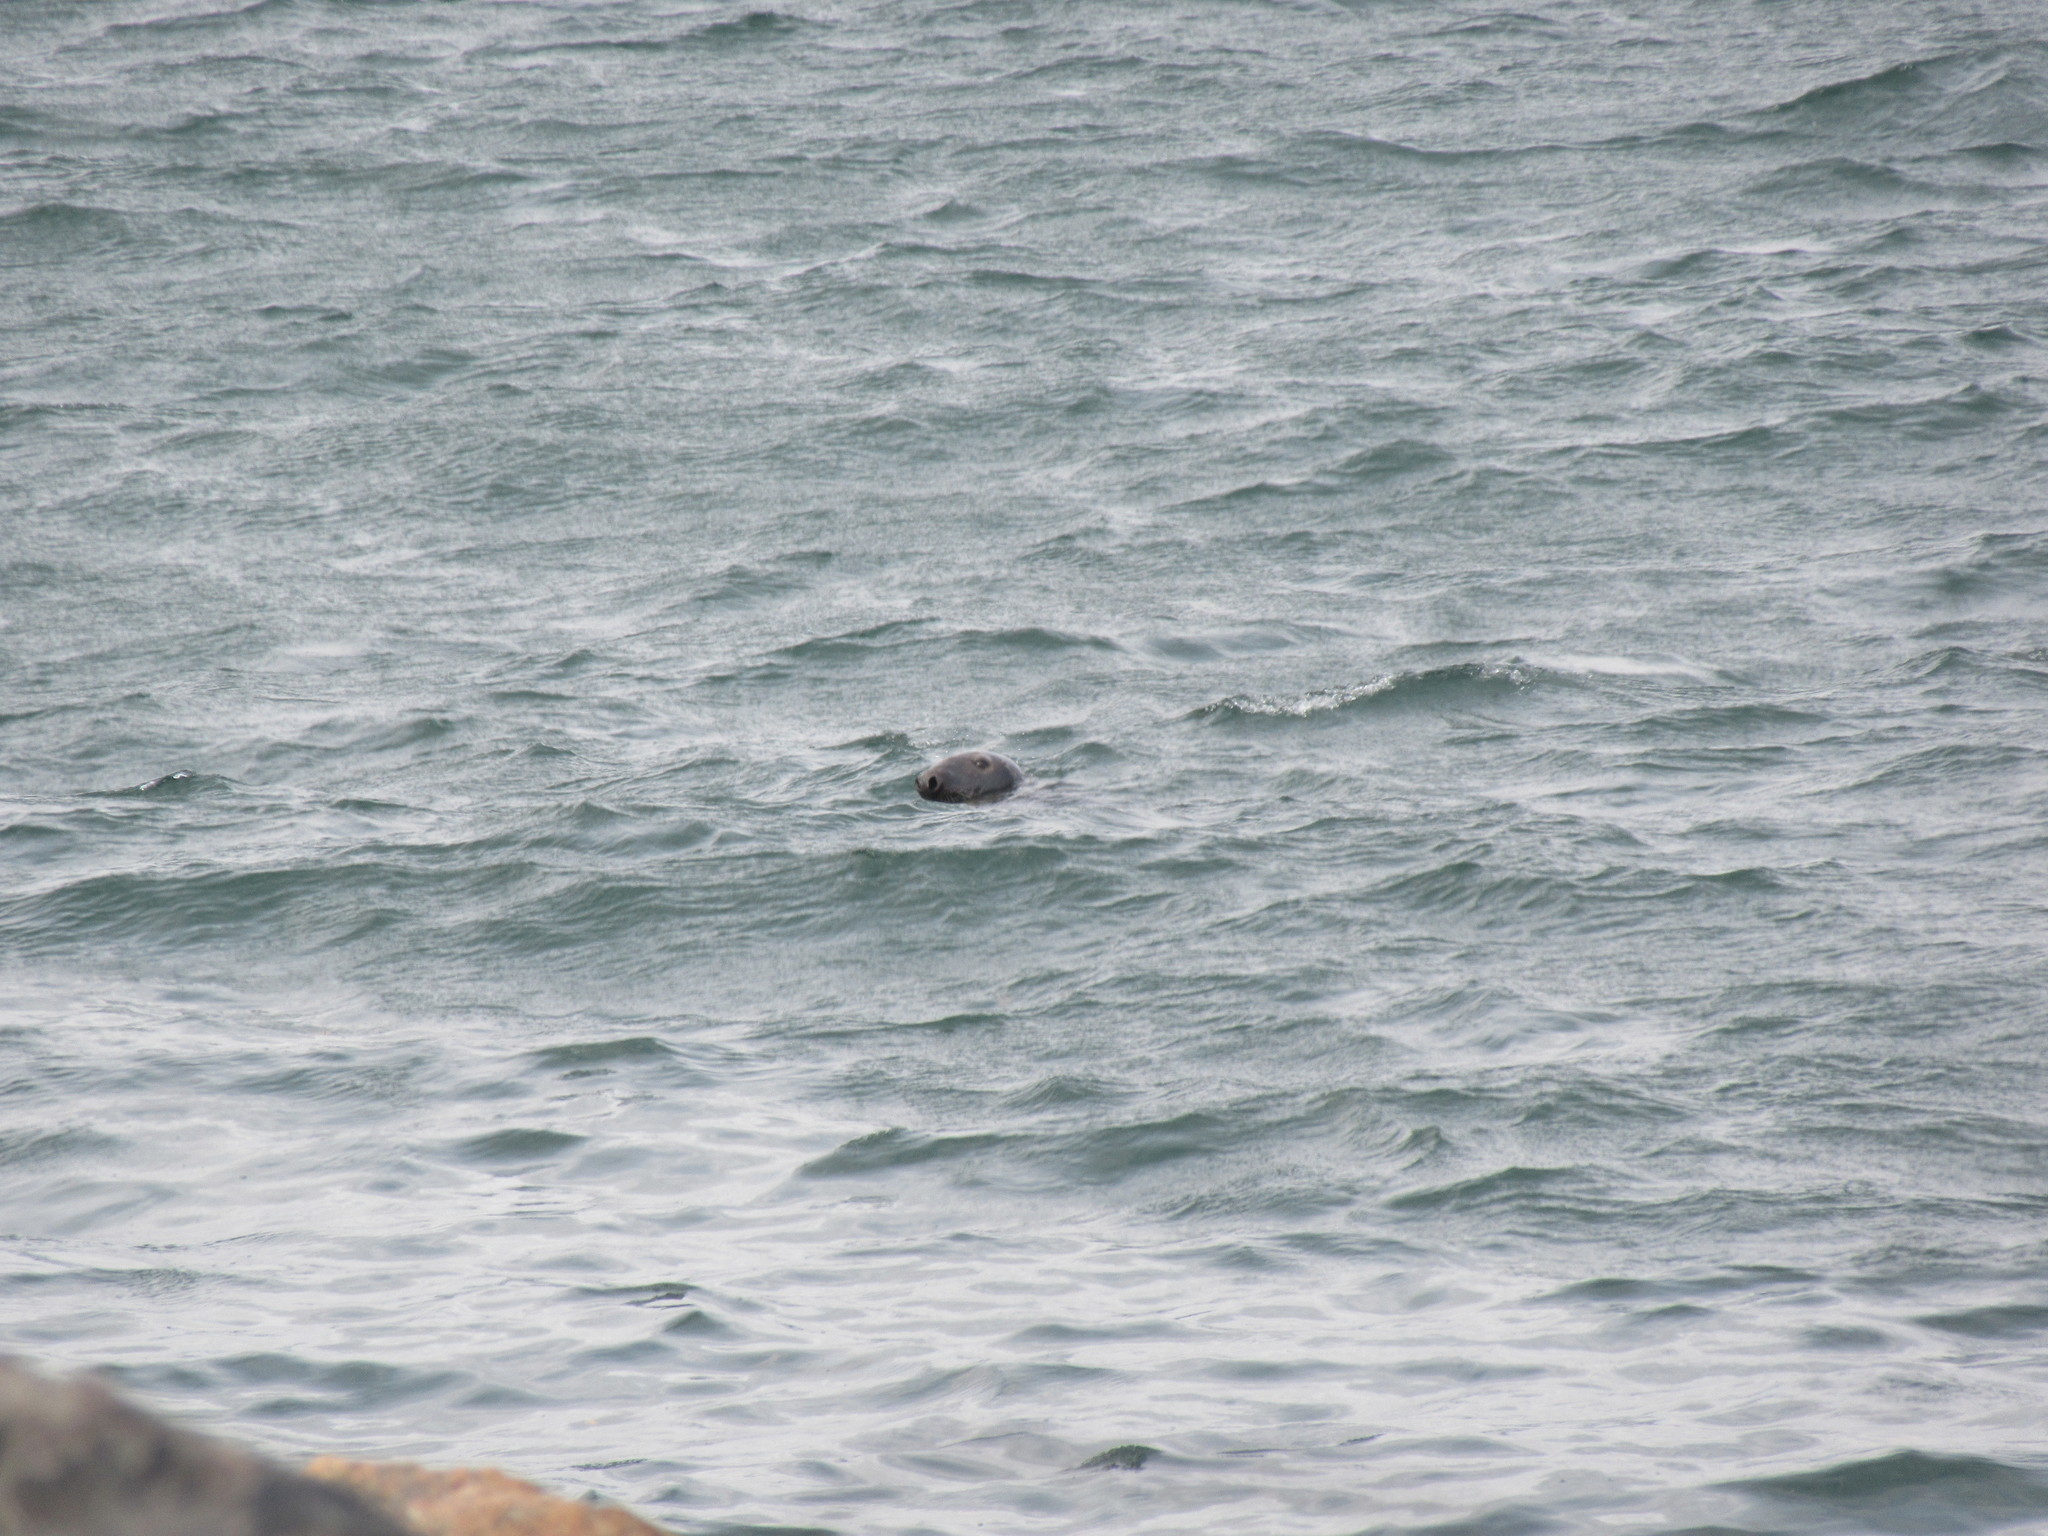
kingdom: Animalia
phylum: Chordata
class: Mammalia
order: Carnivora
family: Phocidae
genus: Halichoerus
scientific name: Halichoerus grypus
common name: Grey seal
